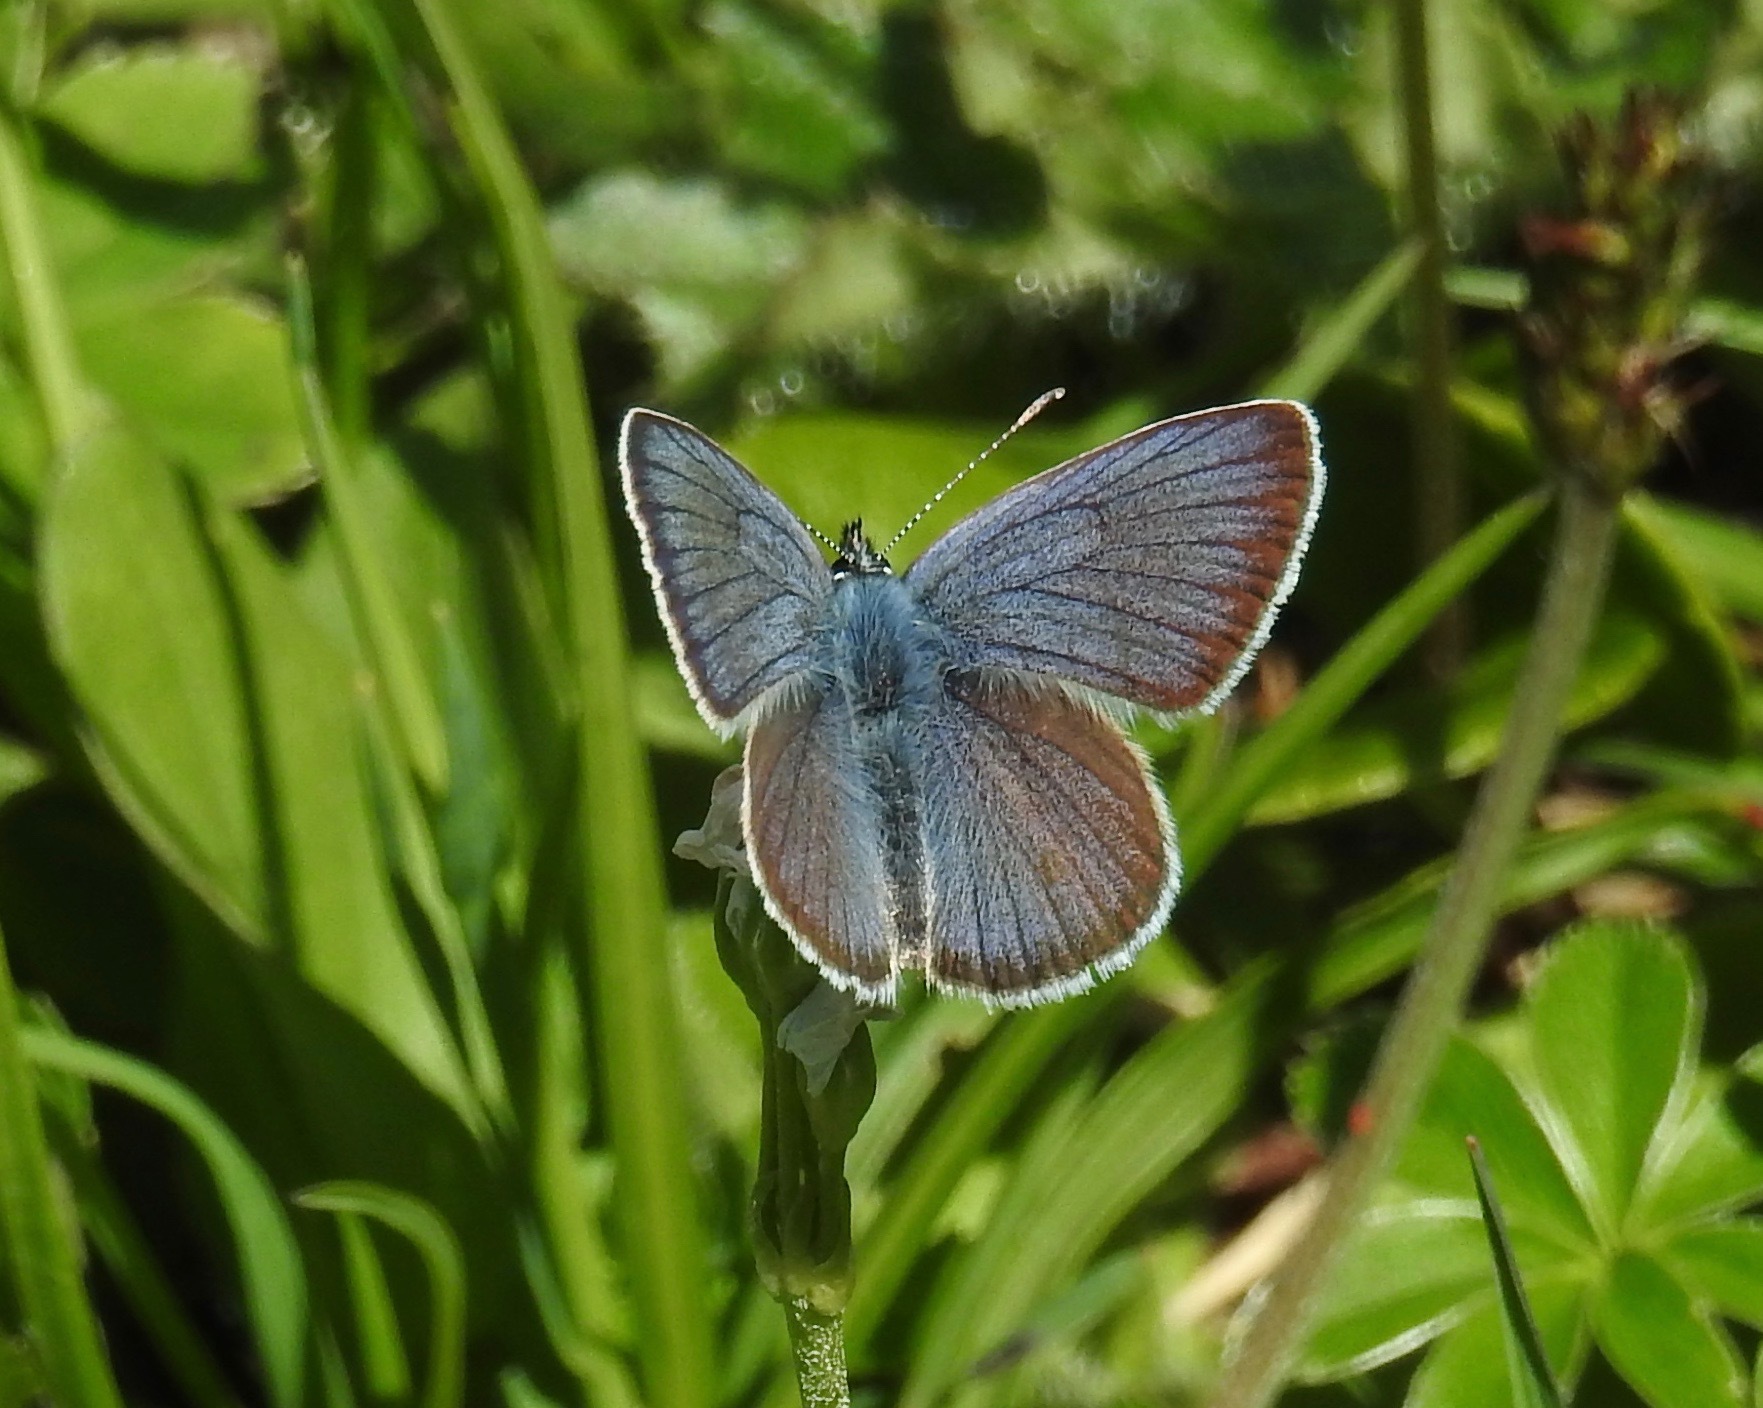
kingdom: Animalia
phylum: Arthropoda
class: Insecta
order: Lepidoptera
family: Lycaenidae
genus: Cyaniris
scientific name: Cyaniris semiargus
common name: Mazarine blue
